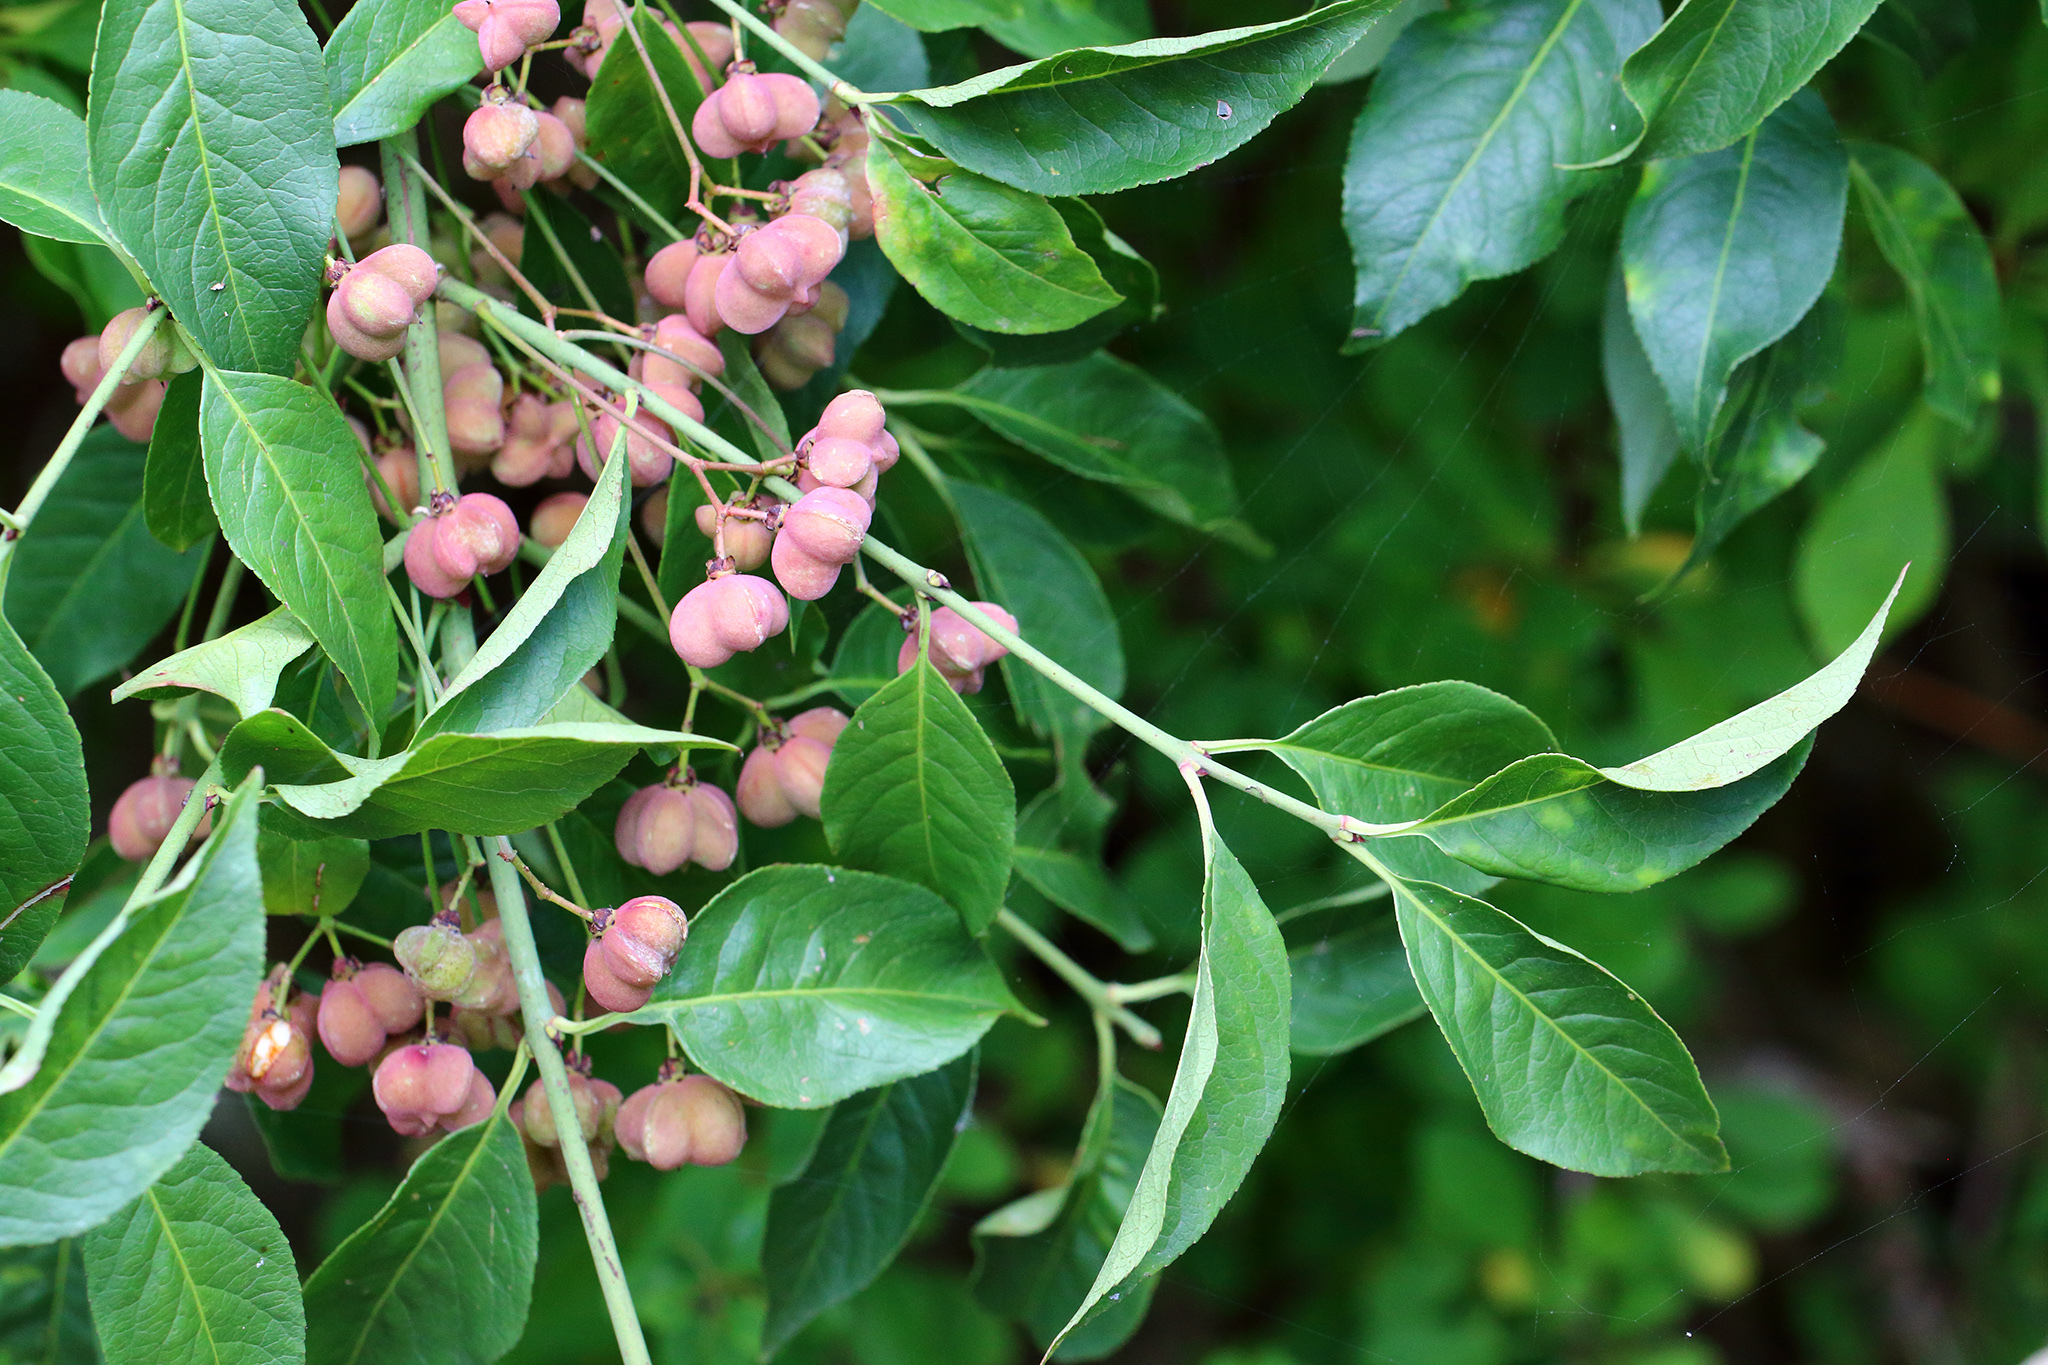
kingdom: Plantae
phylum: Tracheophyta
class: Magnoliopsida
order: Celastrales
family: Celastraceae
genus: Euonymus
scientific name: Euonymus europaeus
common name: Spindle
